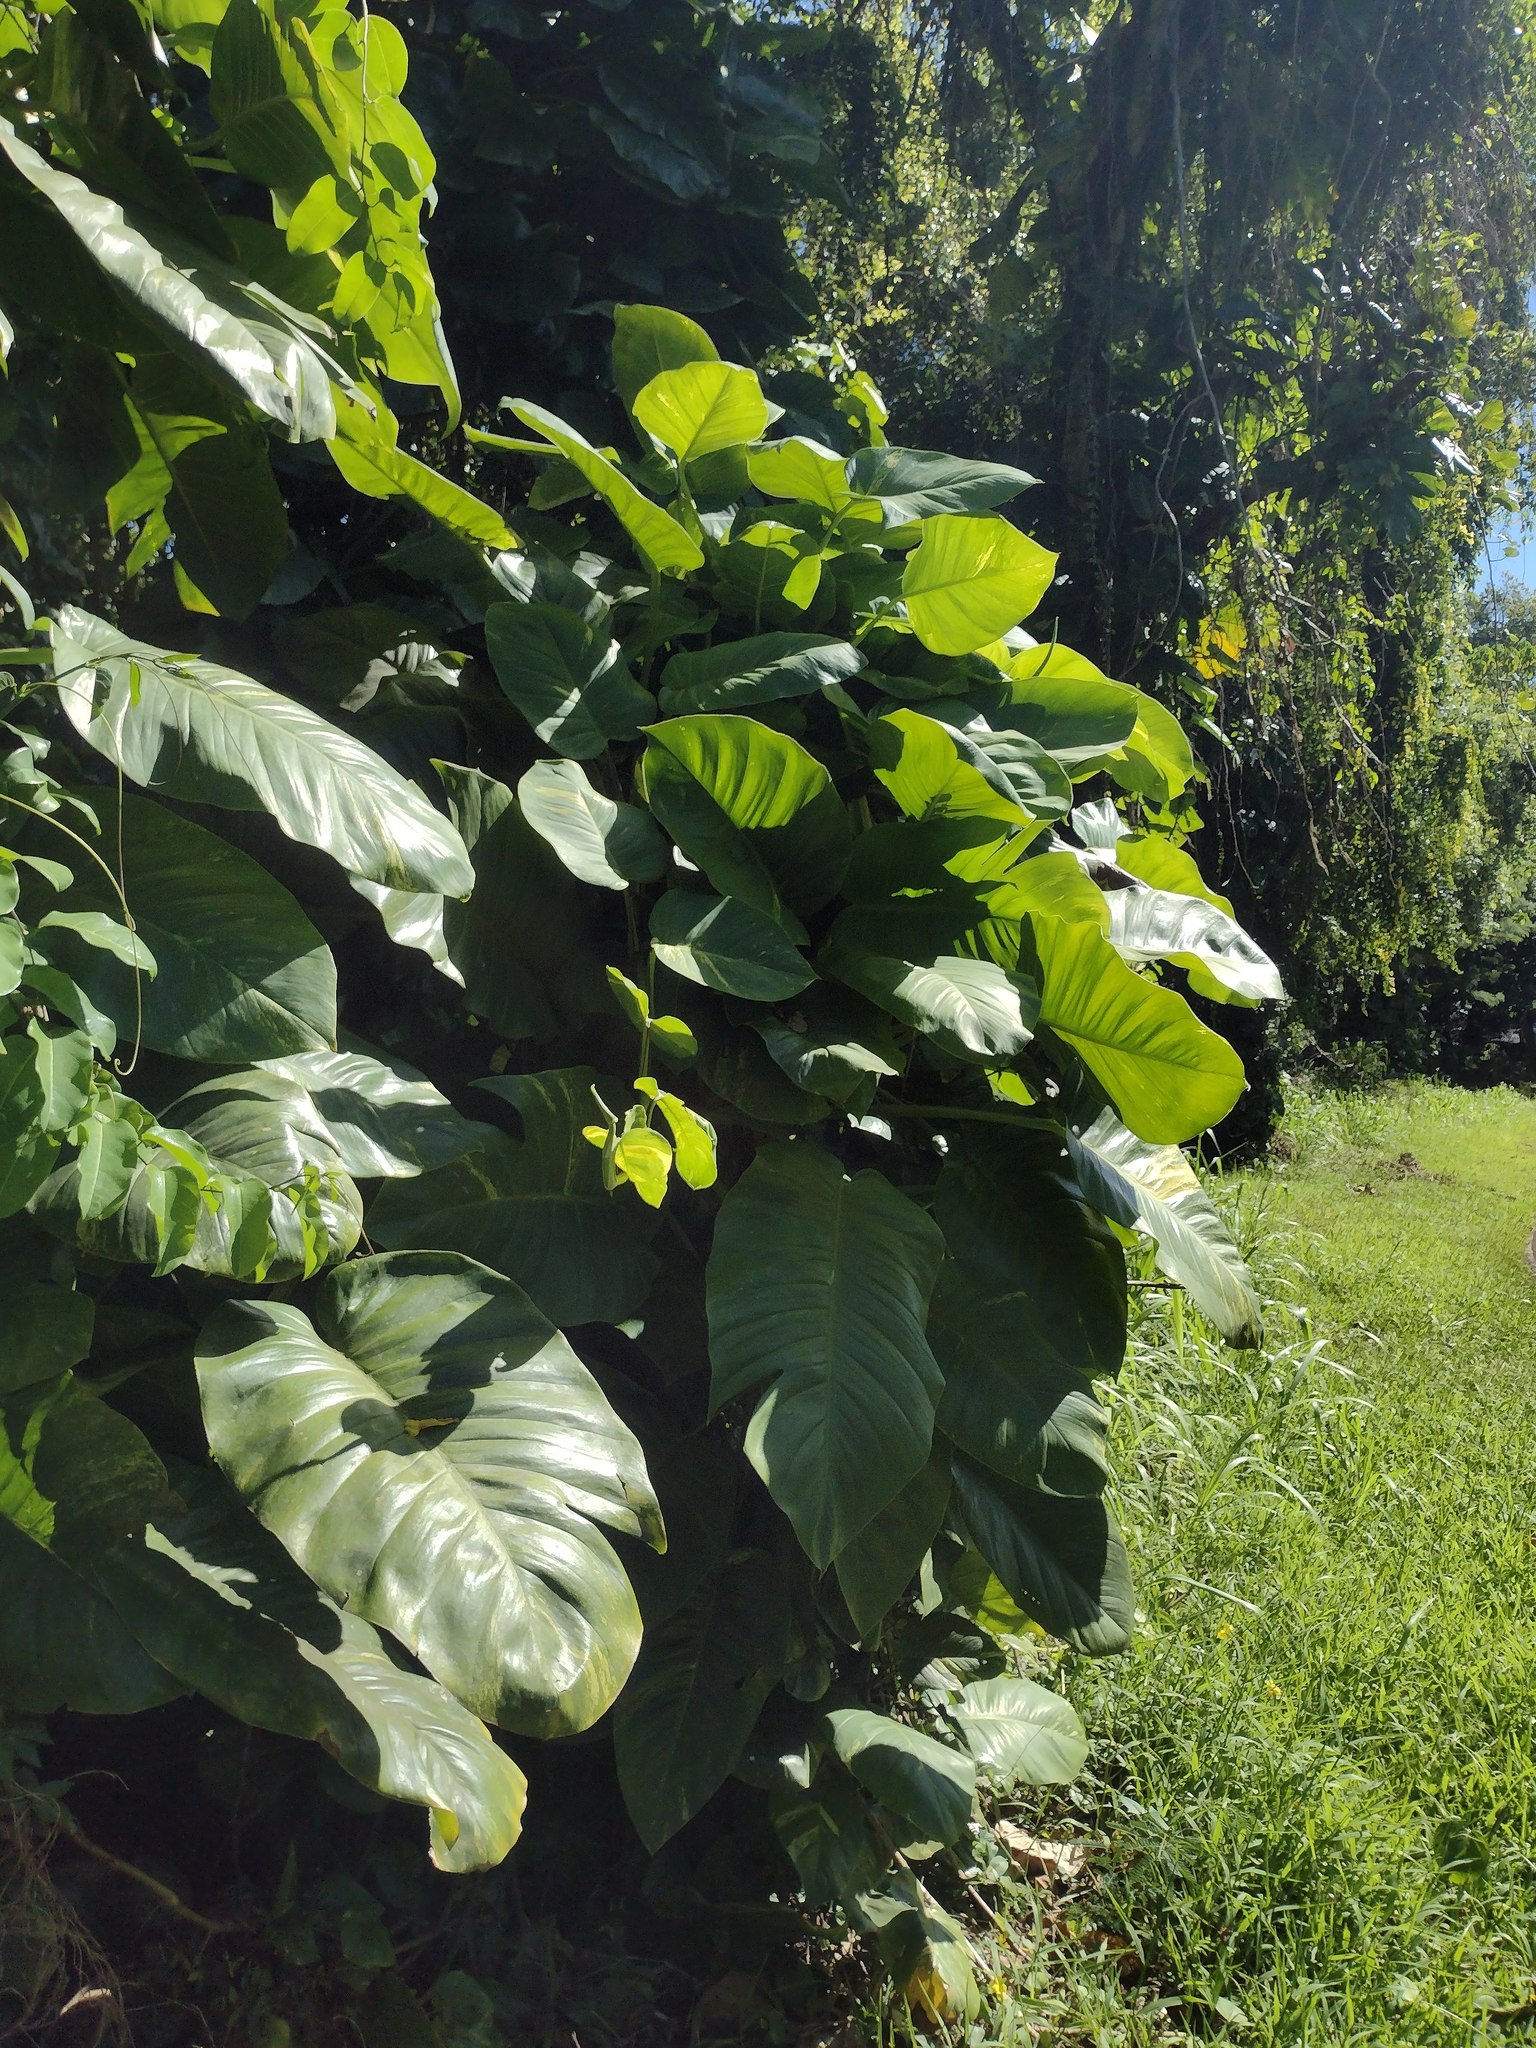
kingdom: Plantae
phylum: Tracheophyta
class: Liliopsida
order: Alismatales
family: Araceae
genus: Epipremnum
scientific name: Epipremnum aureum
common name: Golden hunter's-robe
